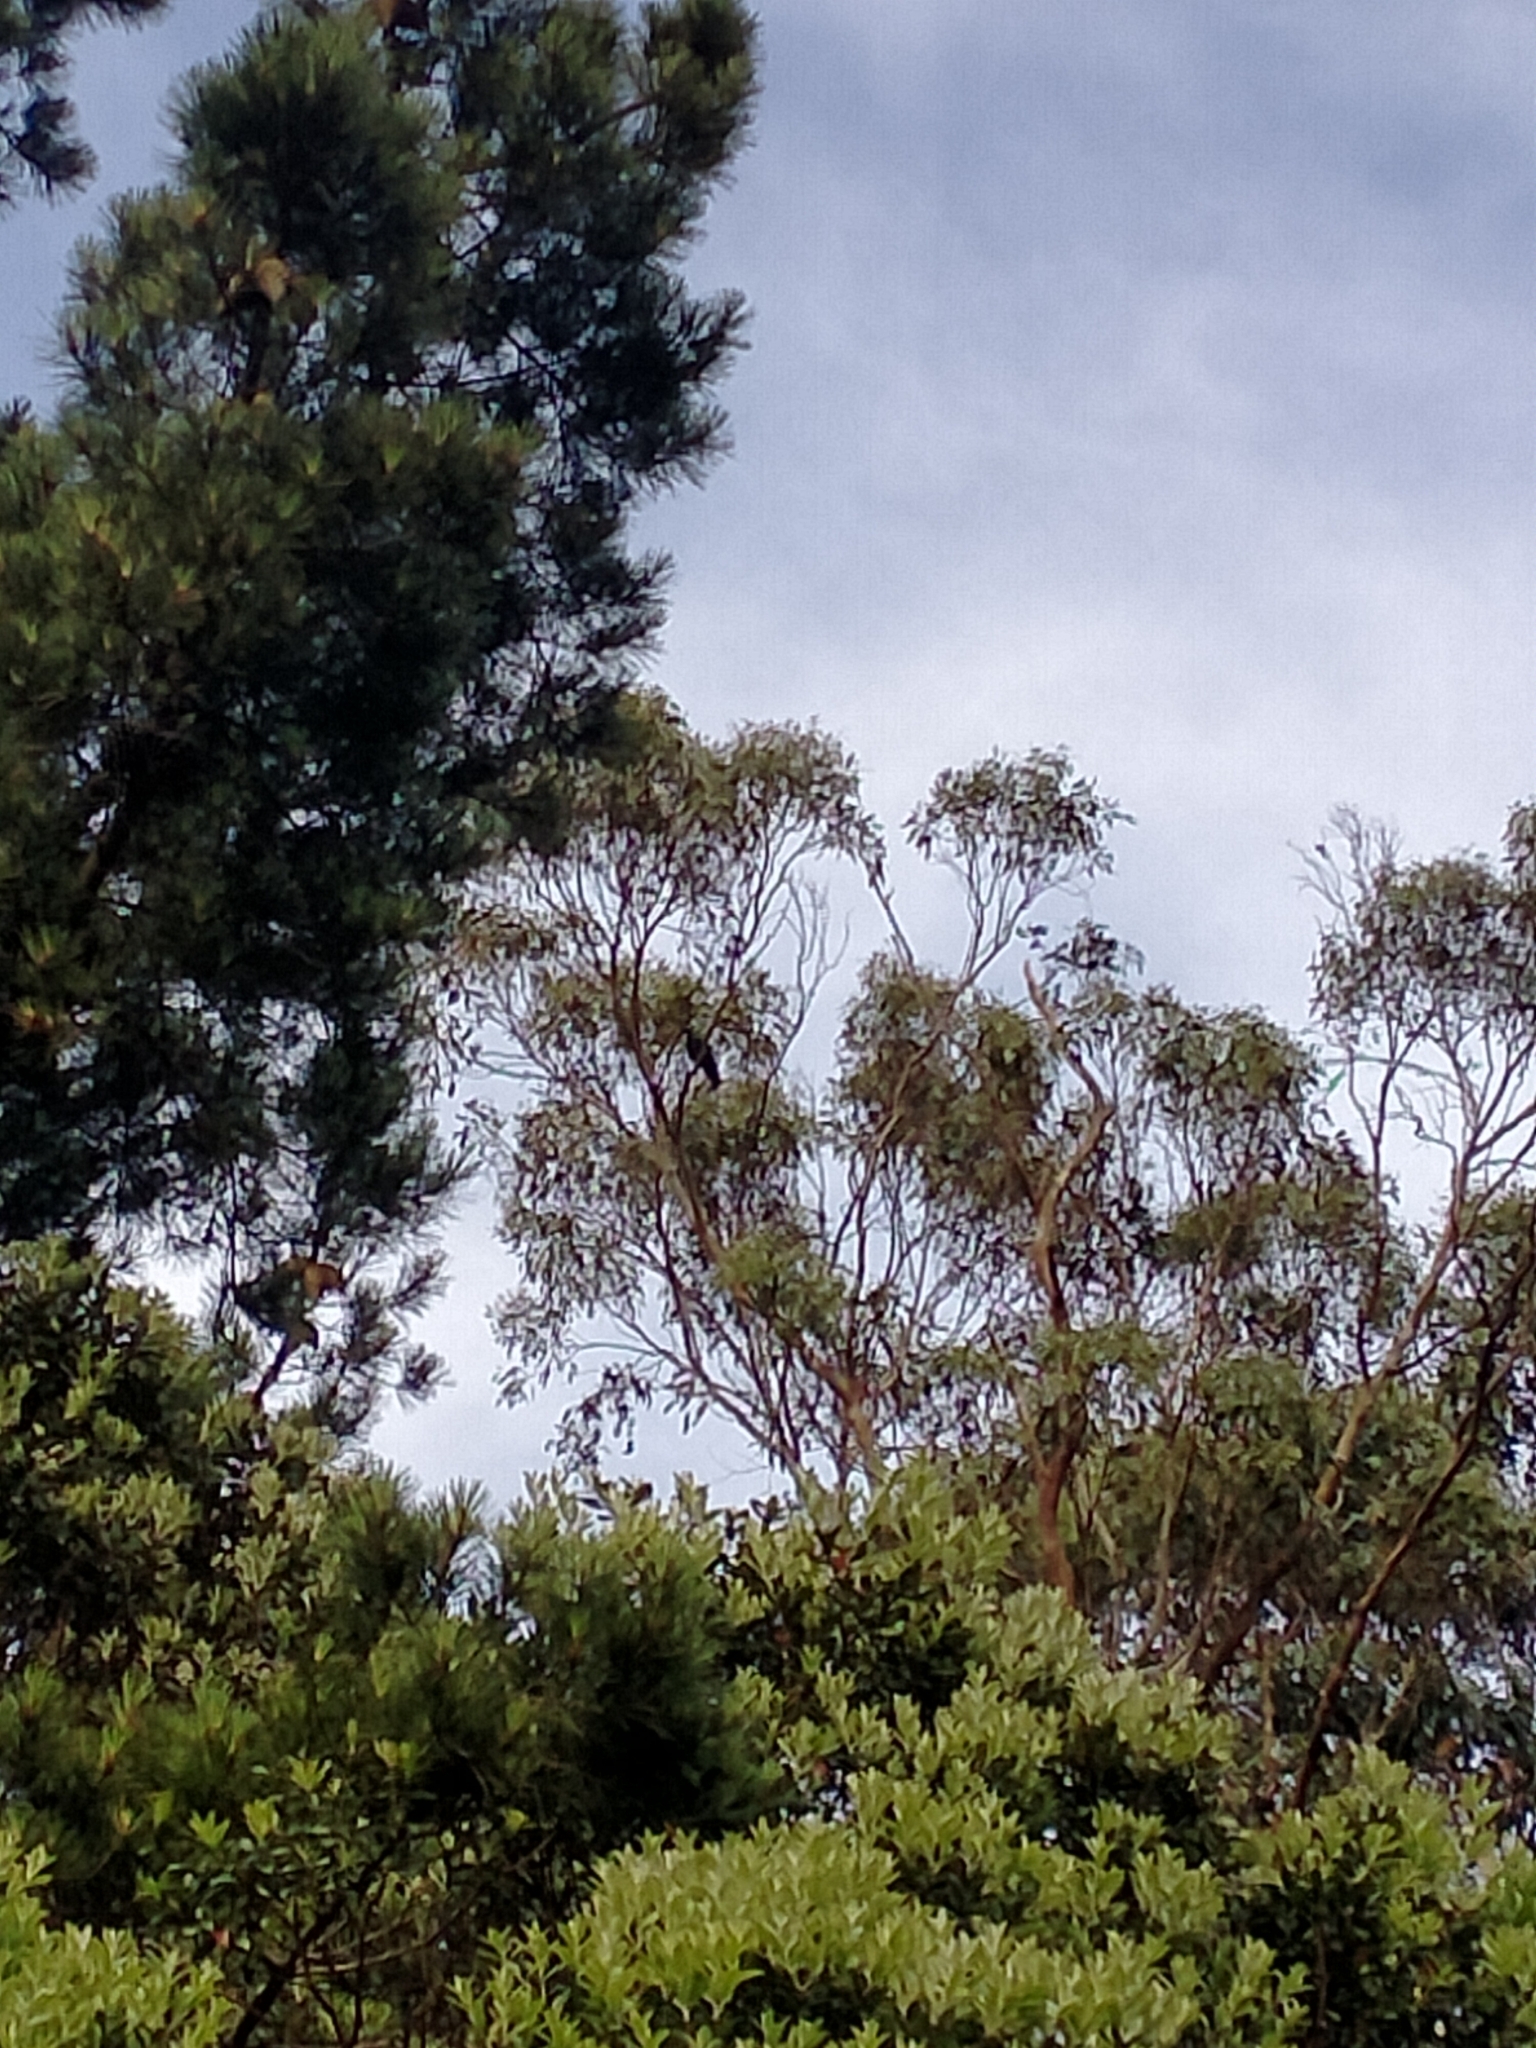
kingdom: Animalia
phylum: Chordata
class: Aves
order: Passeriformes
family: Meliphagidae
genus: Prosthemadera
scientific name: Prosthemadera novaeseelandiae
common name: Tui
